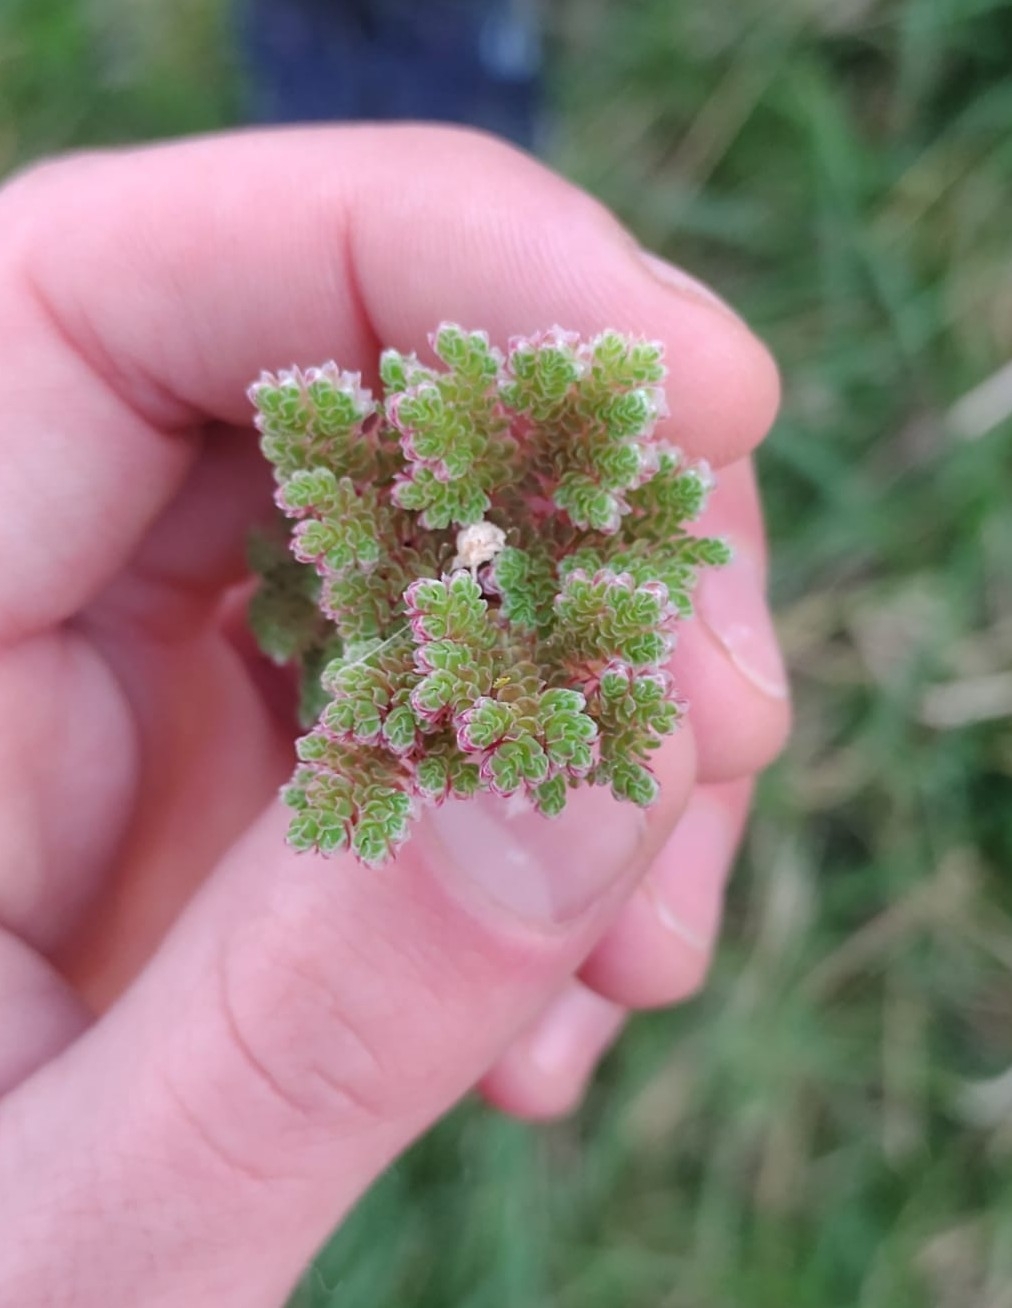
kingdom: Plantae
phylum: Tracheophyta
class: Polypodiopsida
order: Salviniales
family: Salviniaceae
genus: Azolla
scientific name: Azolla filiculoides
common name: Water fern
